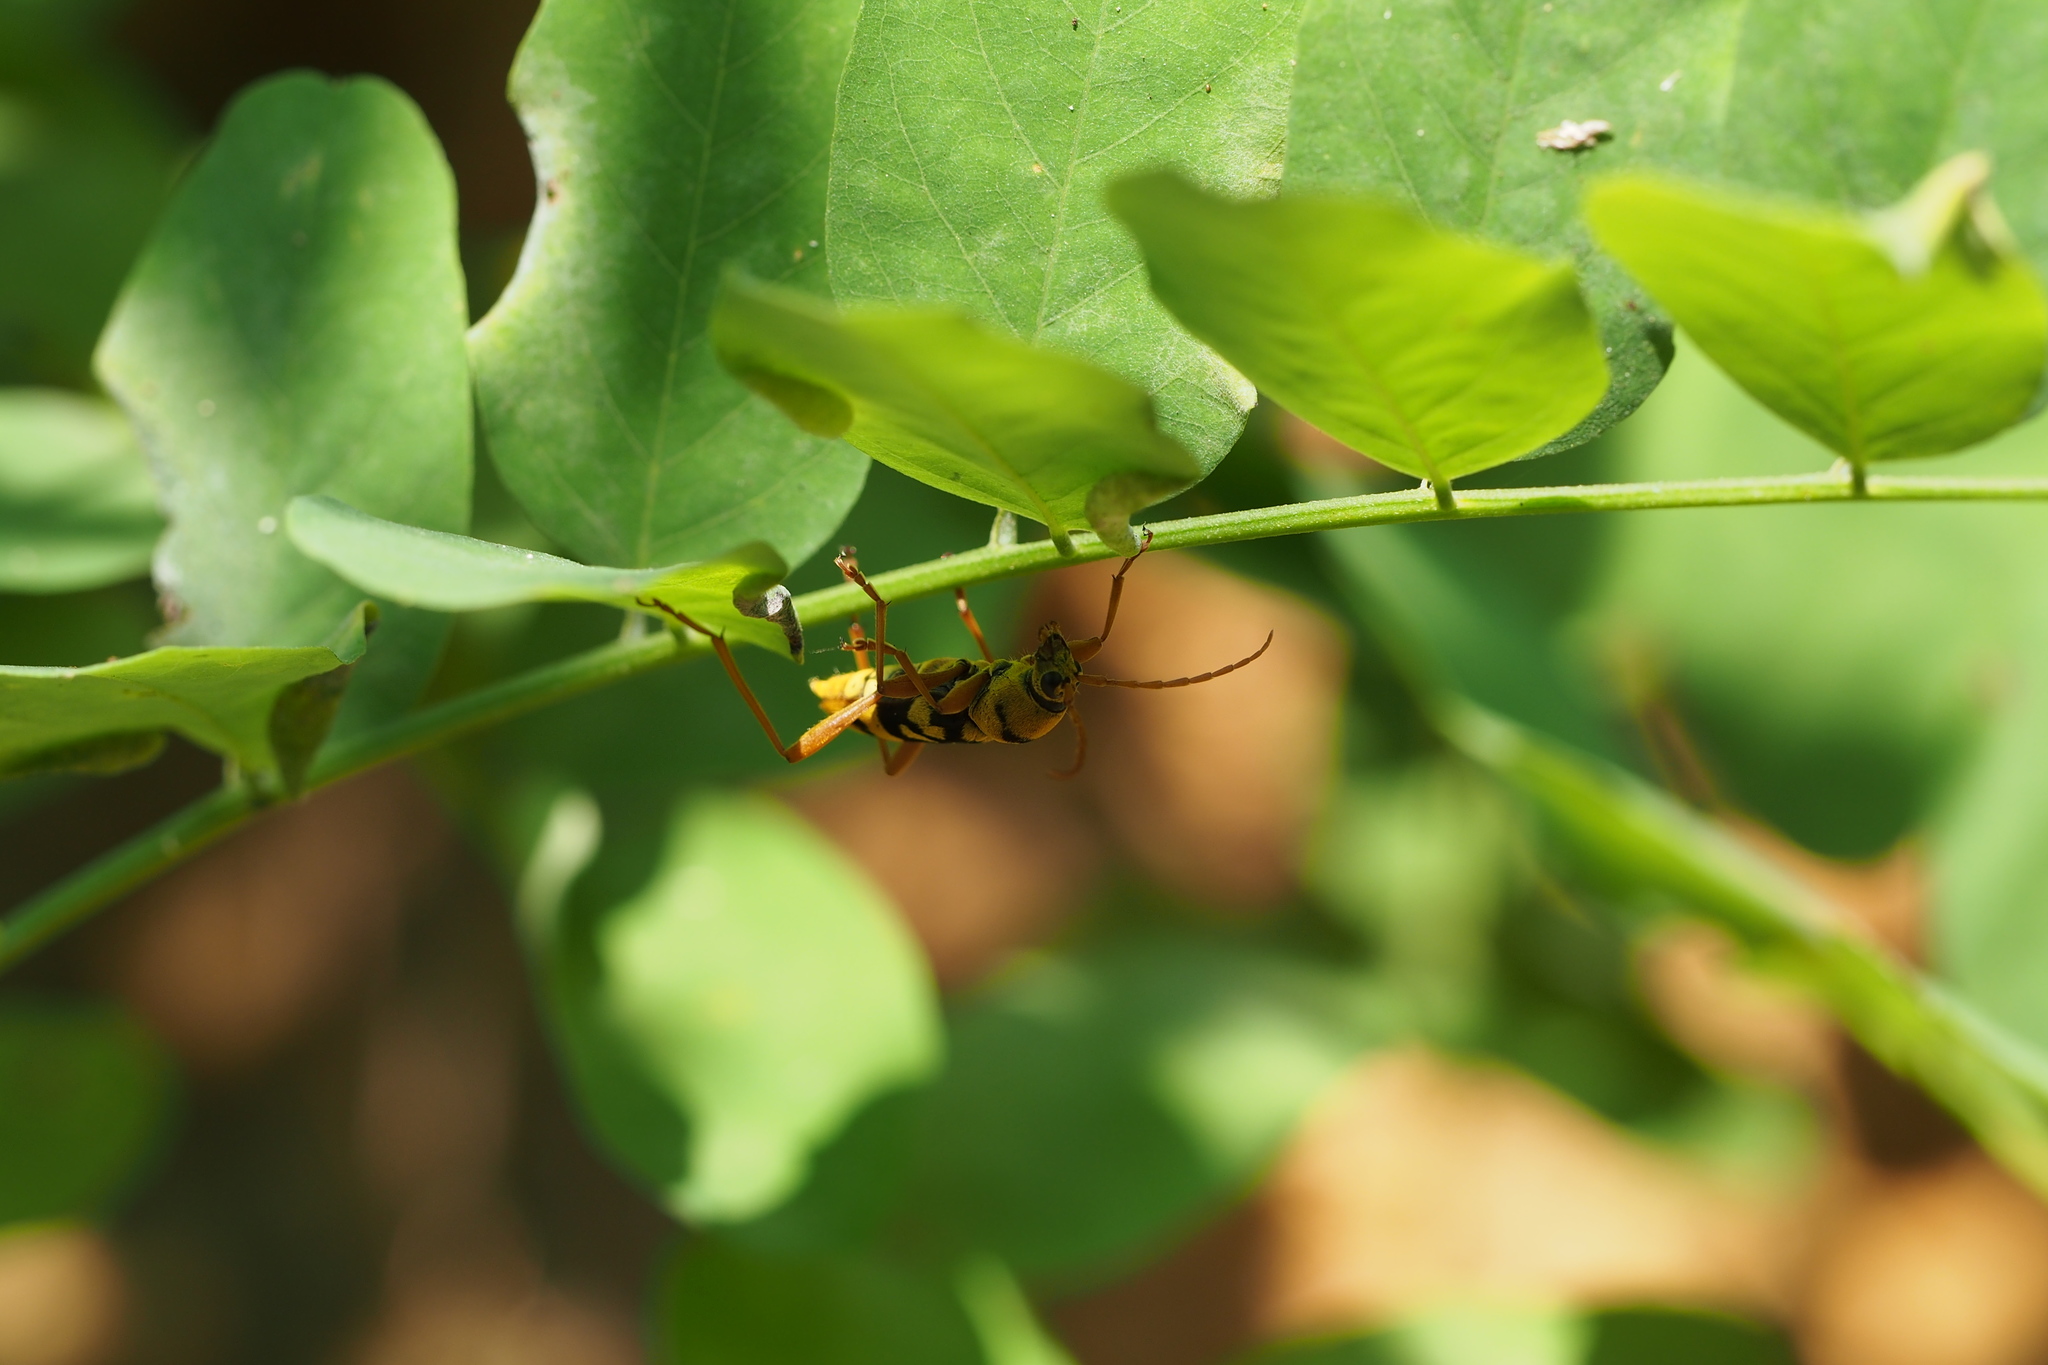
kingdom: Animalia
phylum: Arthropoda
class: Insecta
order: Coleoptera
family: Cerambycidae
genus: Chlorophorus
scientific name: Chlorophorus quinquefasciatus
